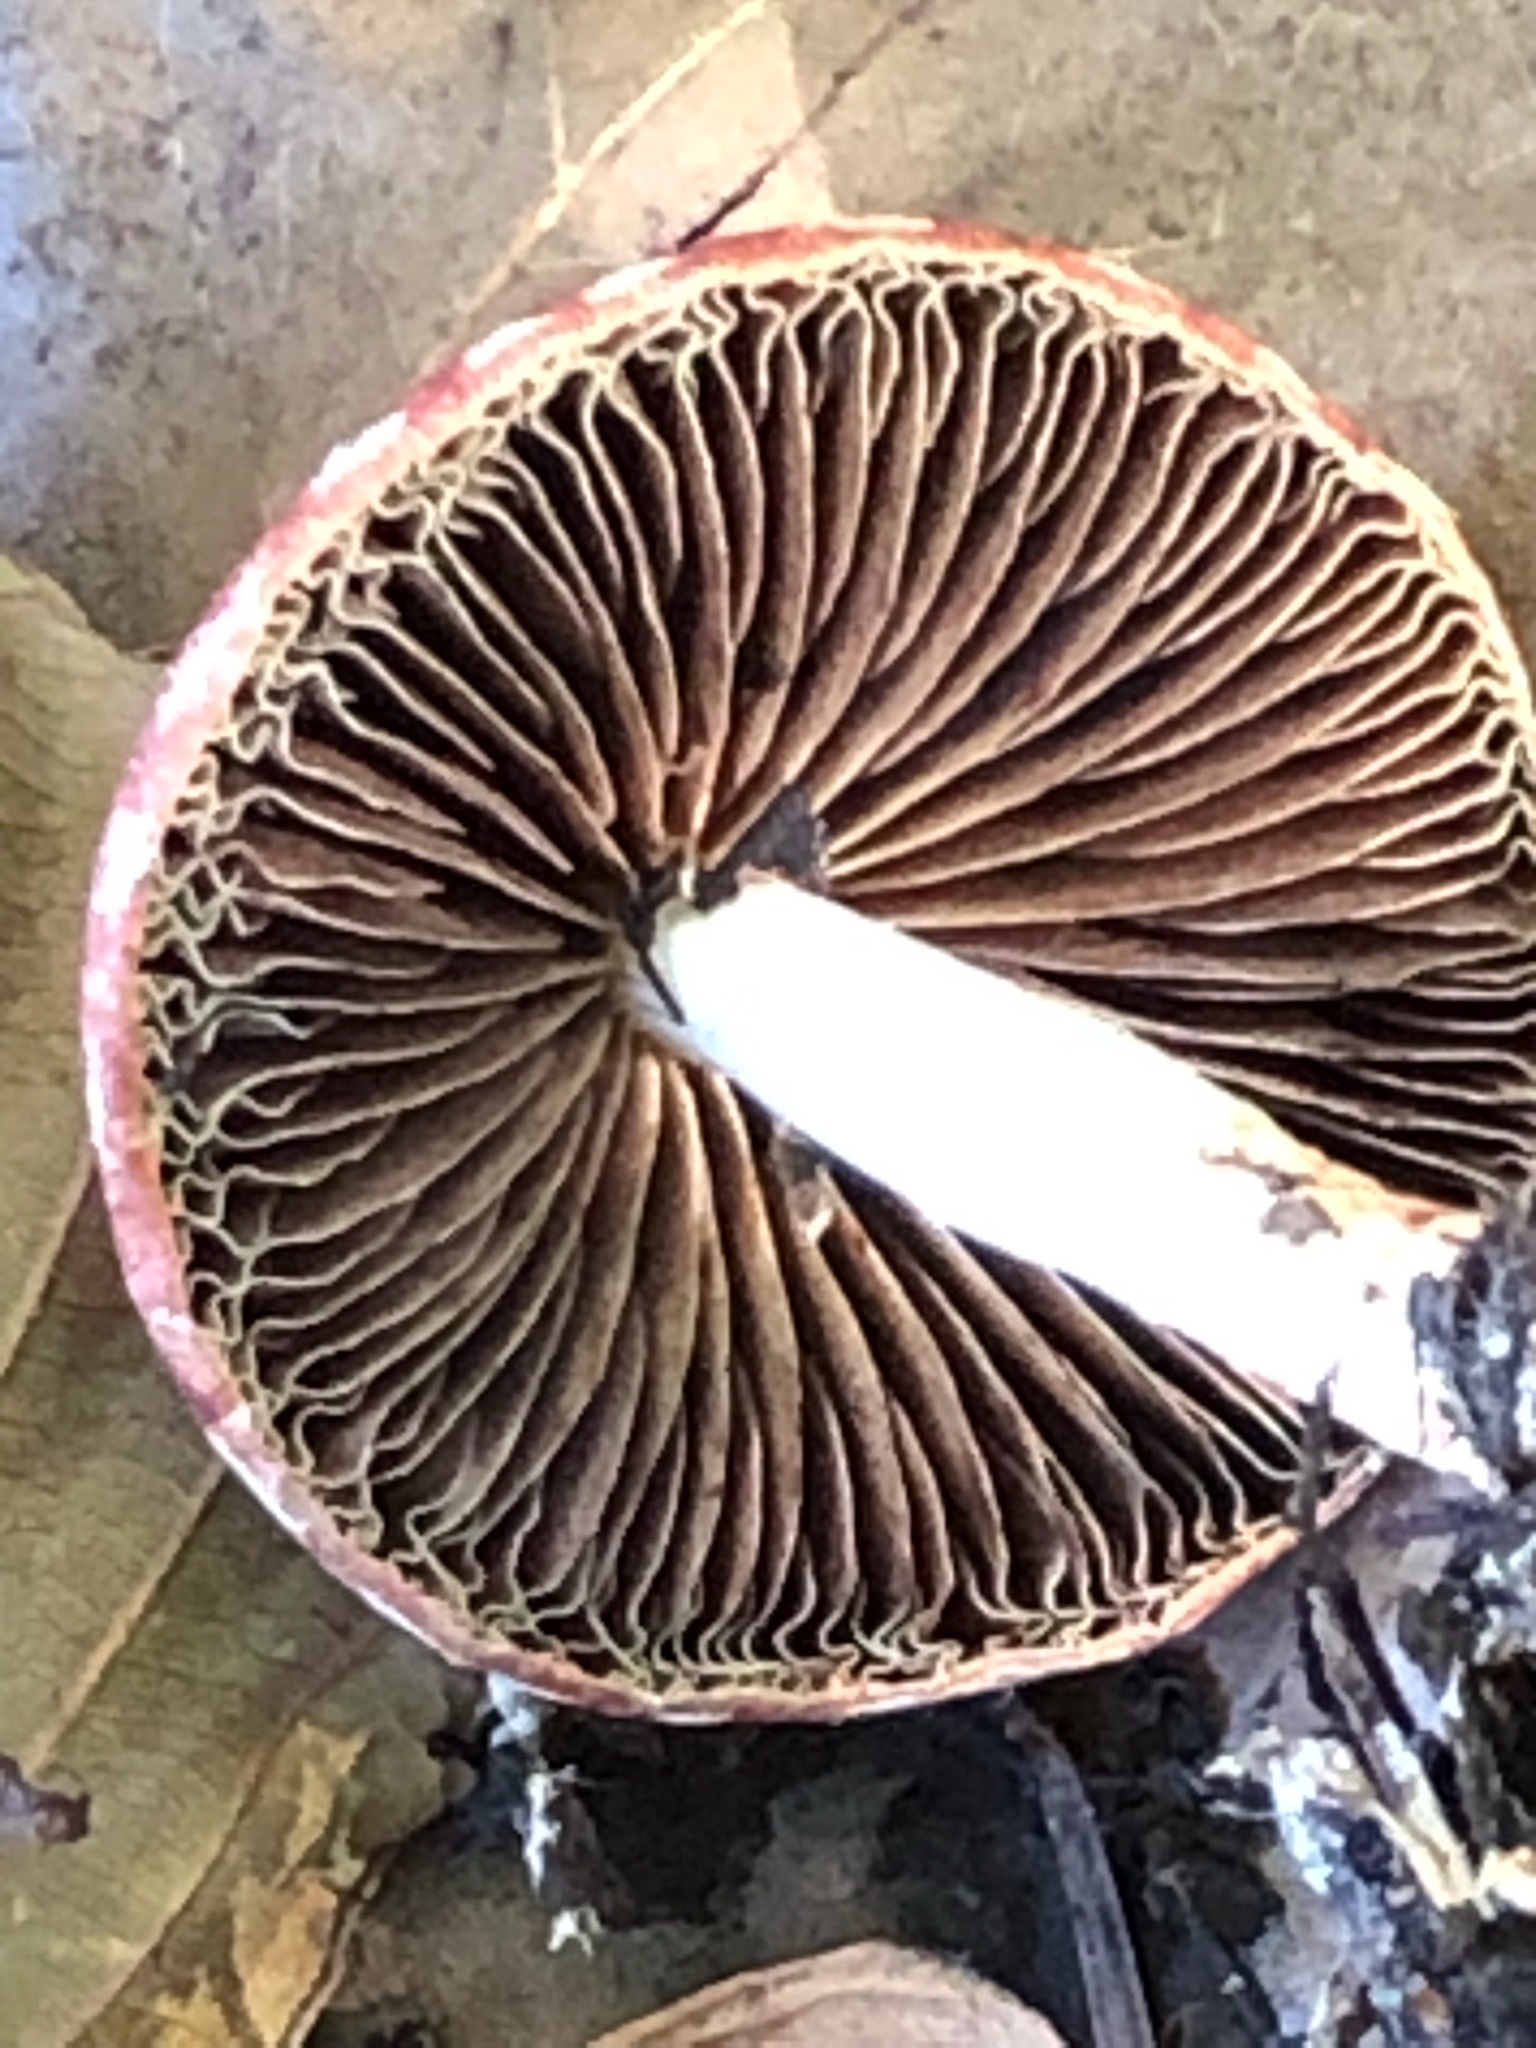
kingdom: Fungi
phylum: Basidiomycota
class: Agaricomycetes
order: Agaricales
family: Strophariaceae
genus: Leratiomyces
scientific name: Leratiomyces ceres
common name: Redlead roundhead
